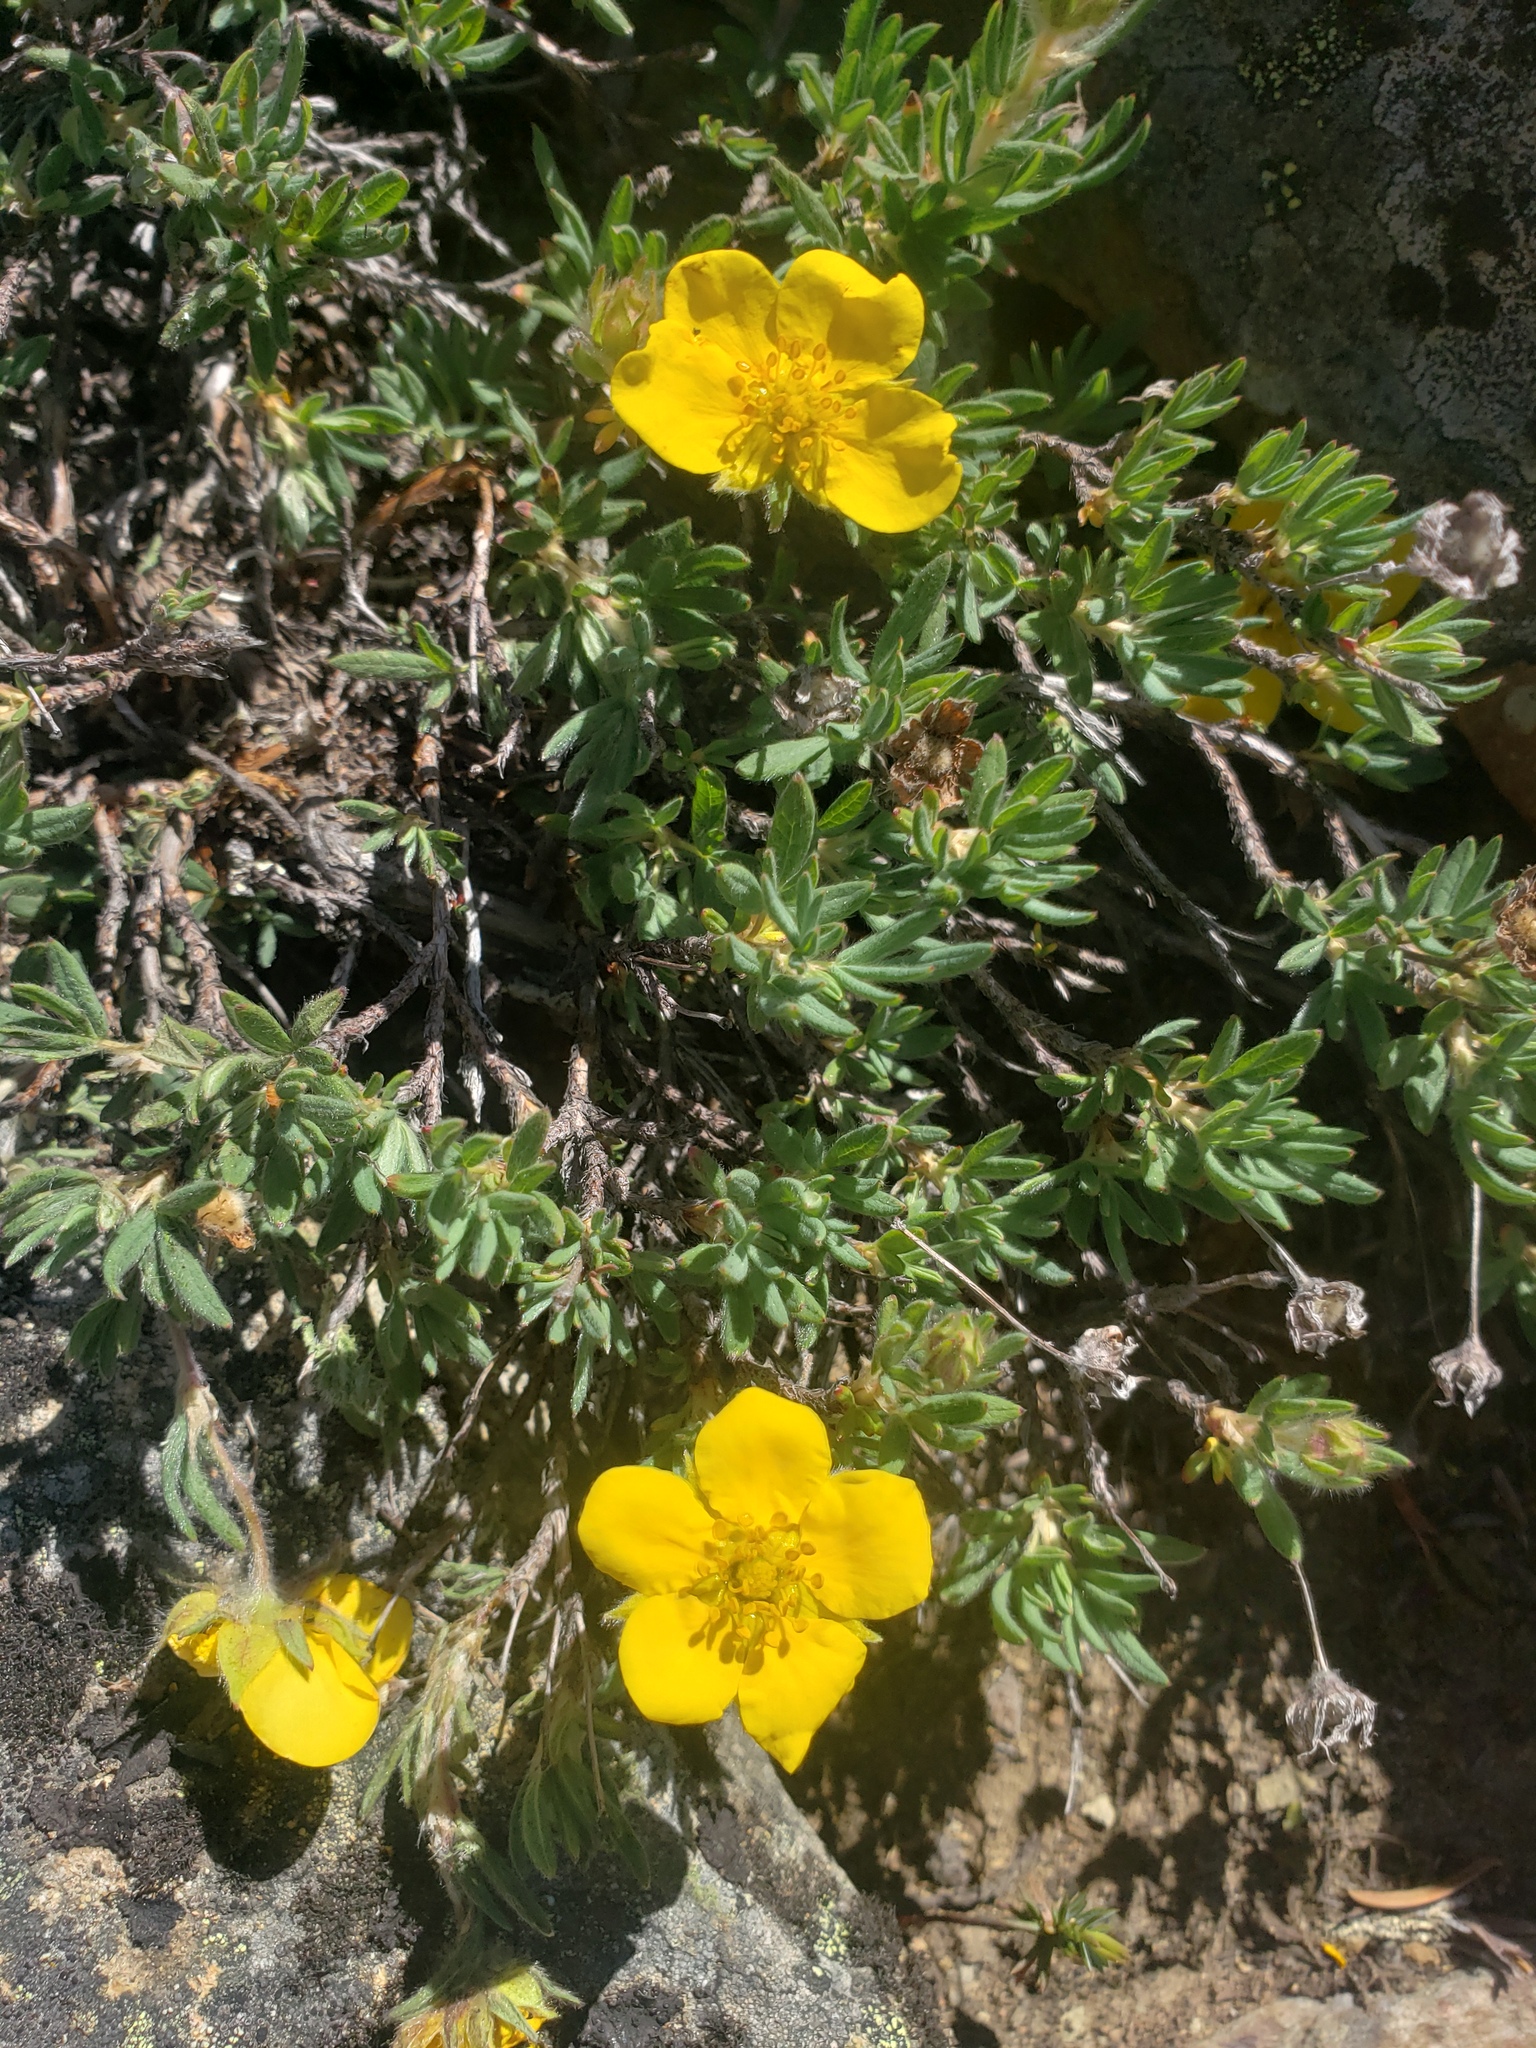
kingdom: Plantae
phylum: Tracheophyta
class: Magnoliopsida
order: Rosales
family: Rosaceae
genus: Dasiphora
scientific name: Dasiphora fruticosa
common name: Shrubby cinquefoil
